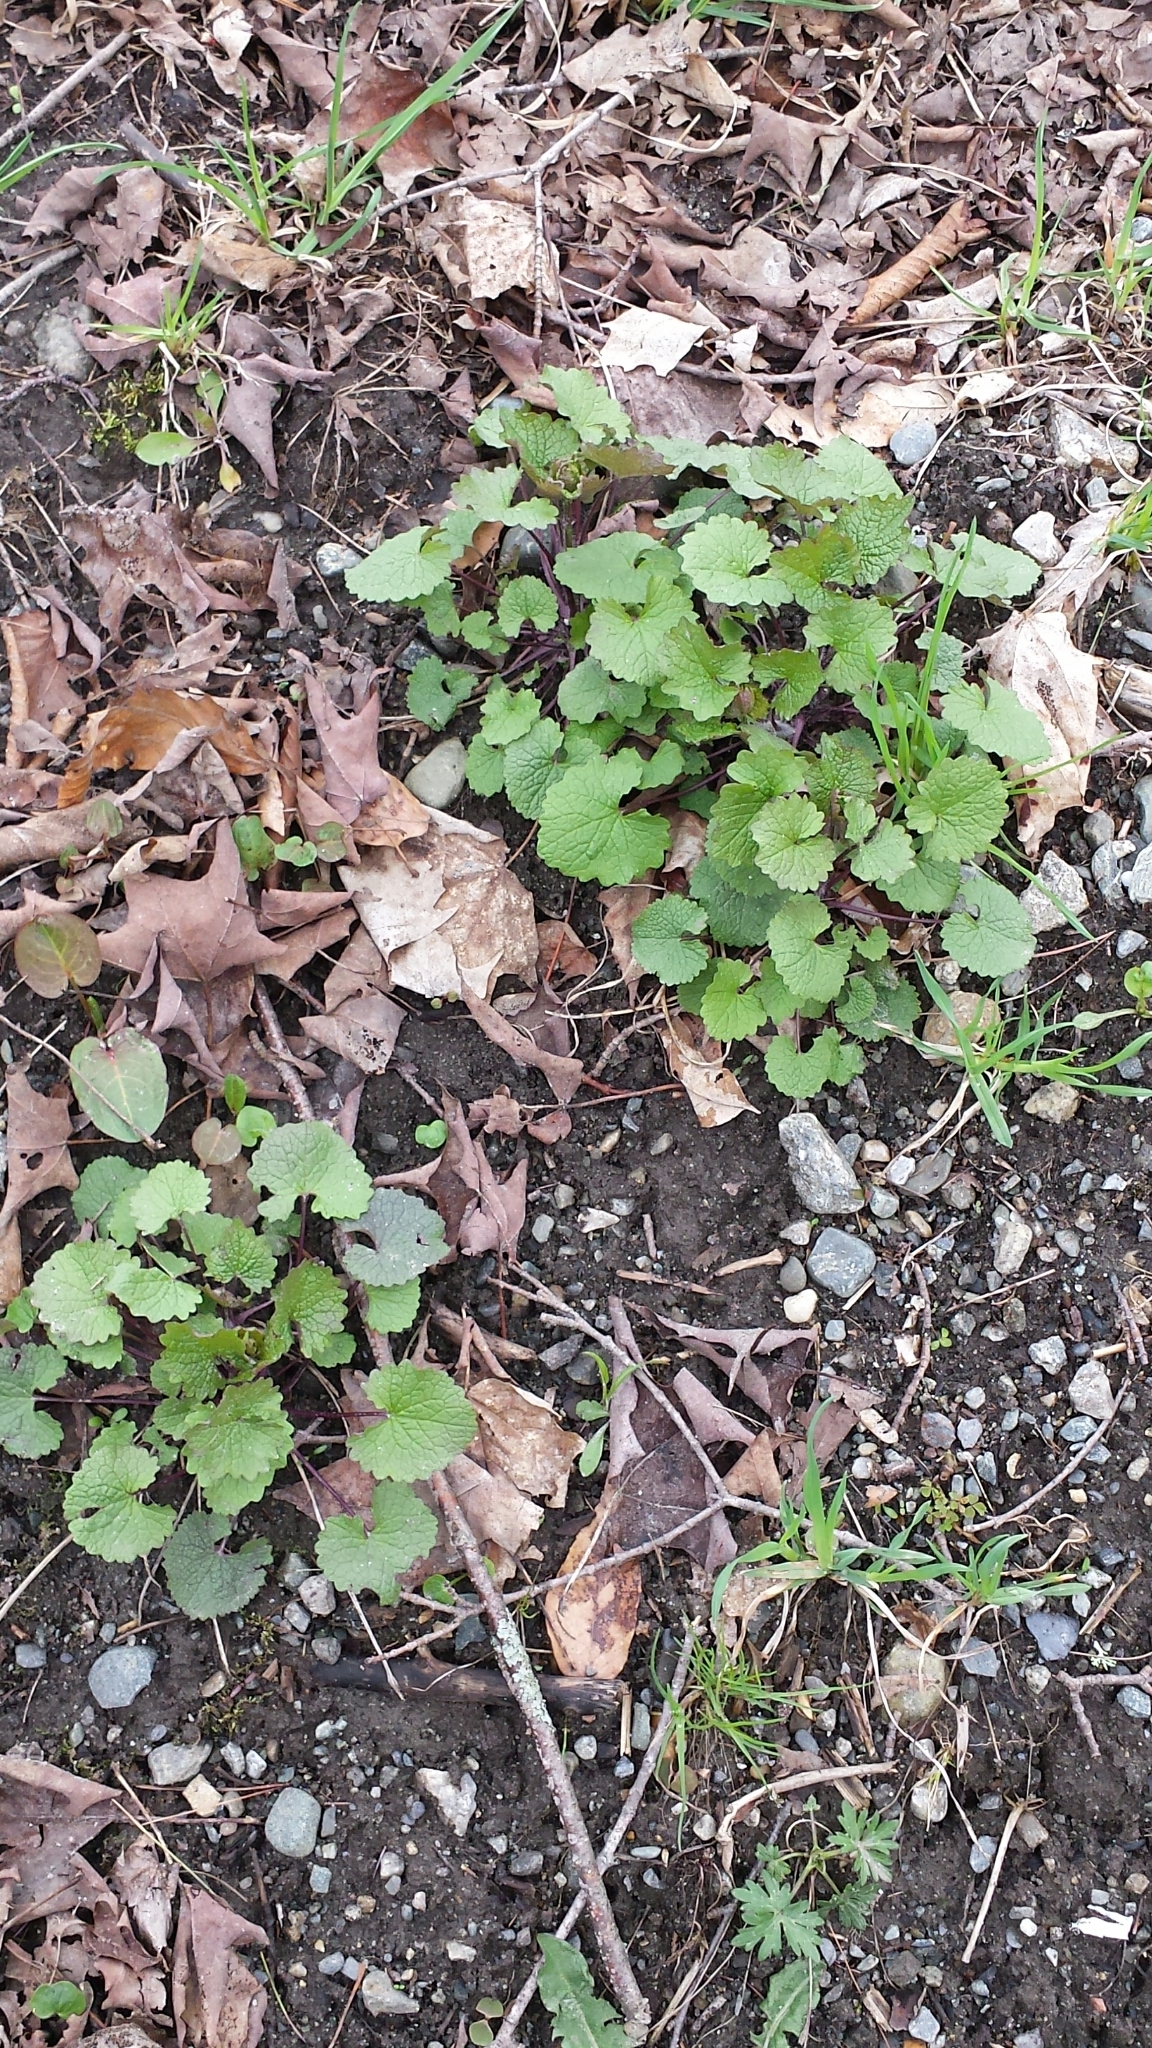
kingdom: Plantae
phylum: Tracheophyta
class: Magnoliopsida
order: Brassicales
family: Brassicaceae
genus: Alliaria
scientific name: Alliaria petiolata
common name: Garlic mustard
